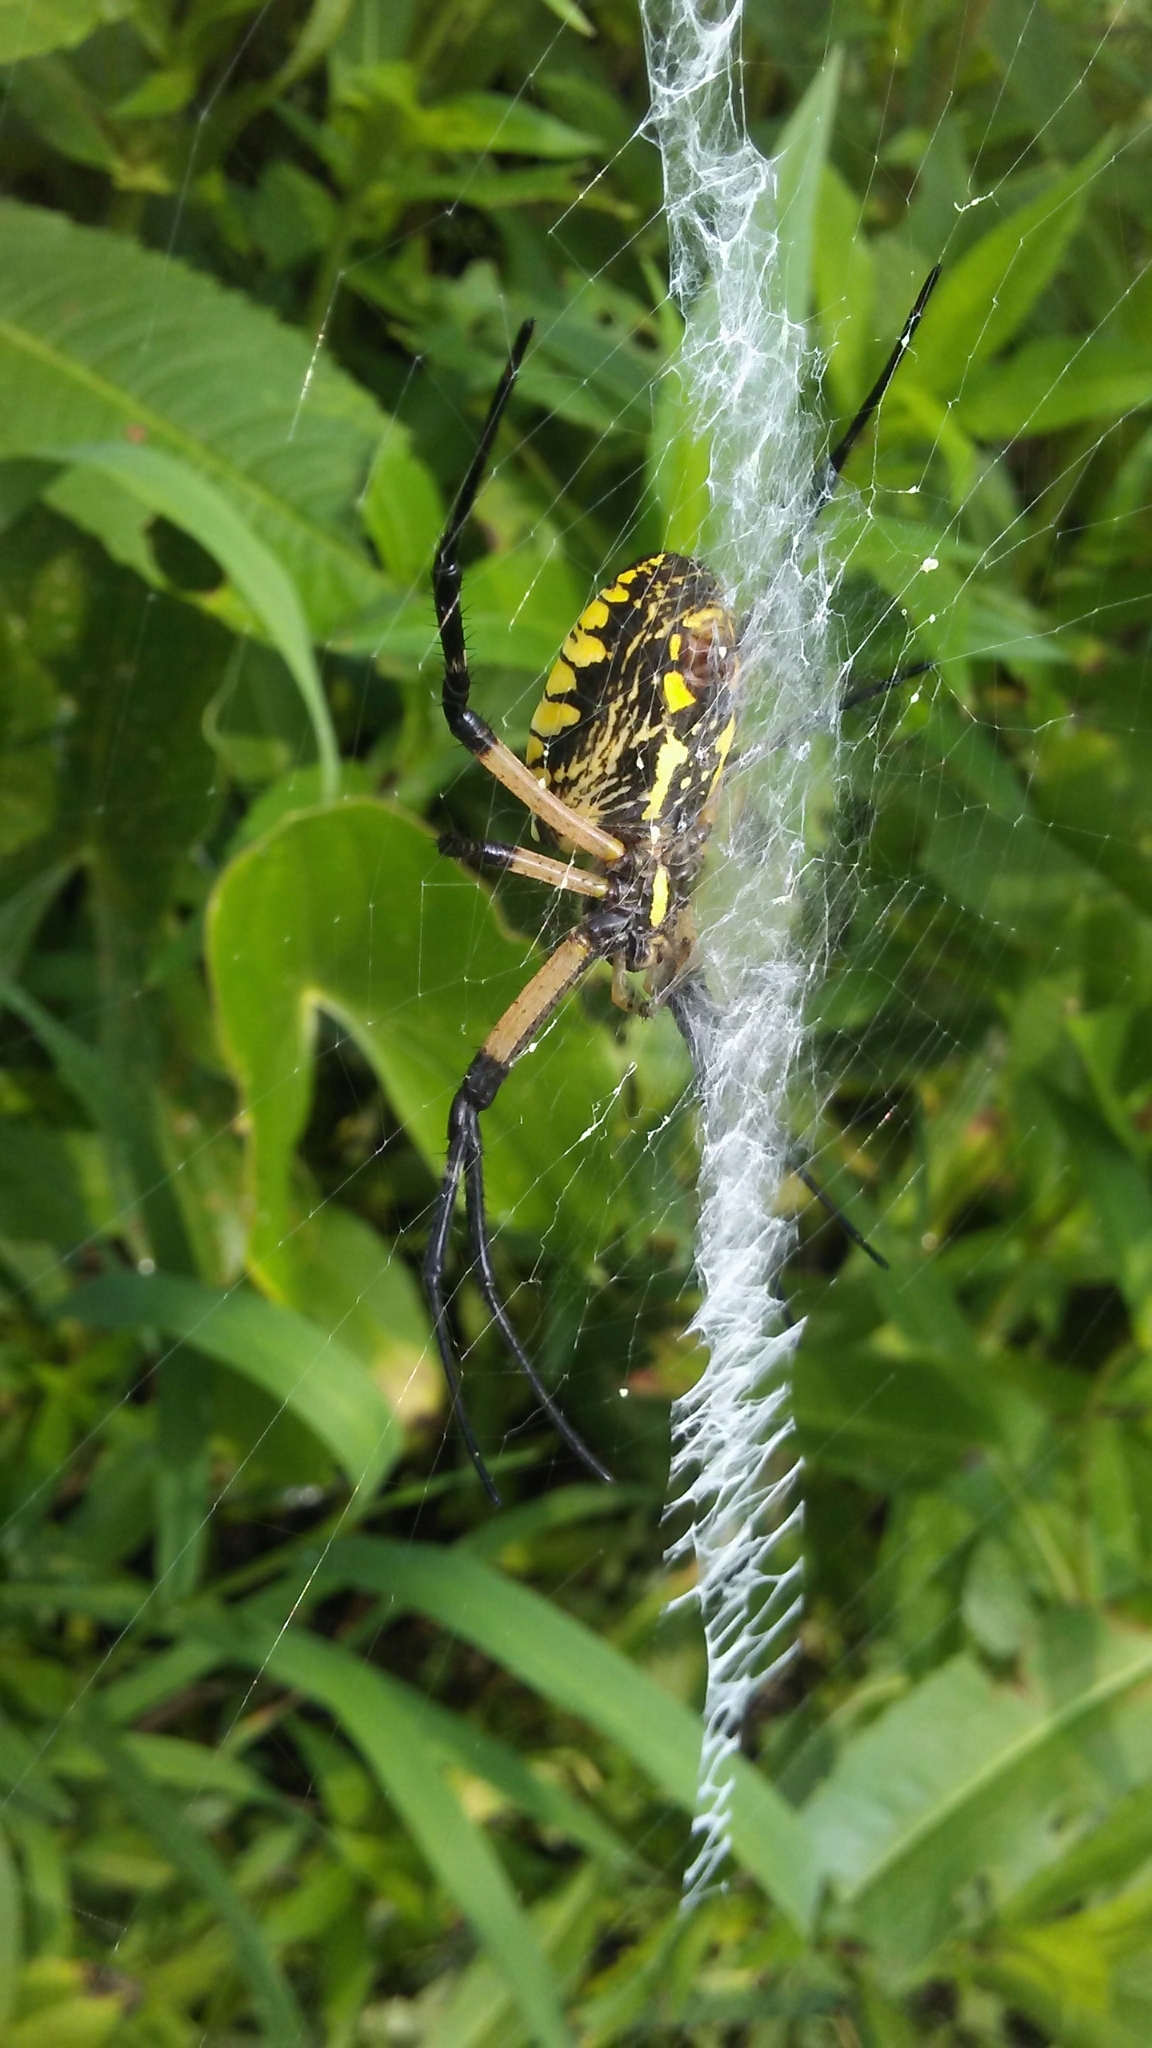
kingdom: Animalia
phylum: Arthropoda
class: Arachnida
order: Araneae
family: Araneidae
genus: Argiope
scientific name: Argiope aurantia
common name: Orb weavers
